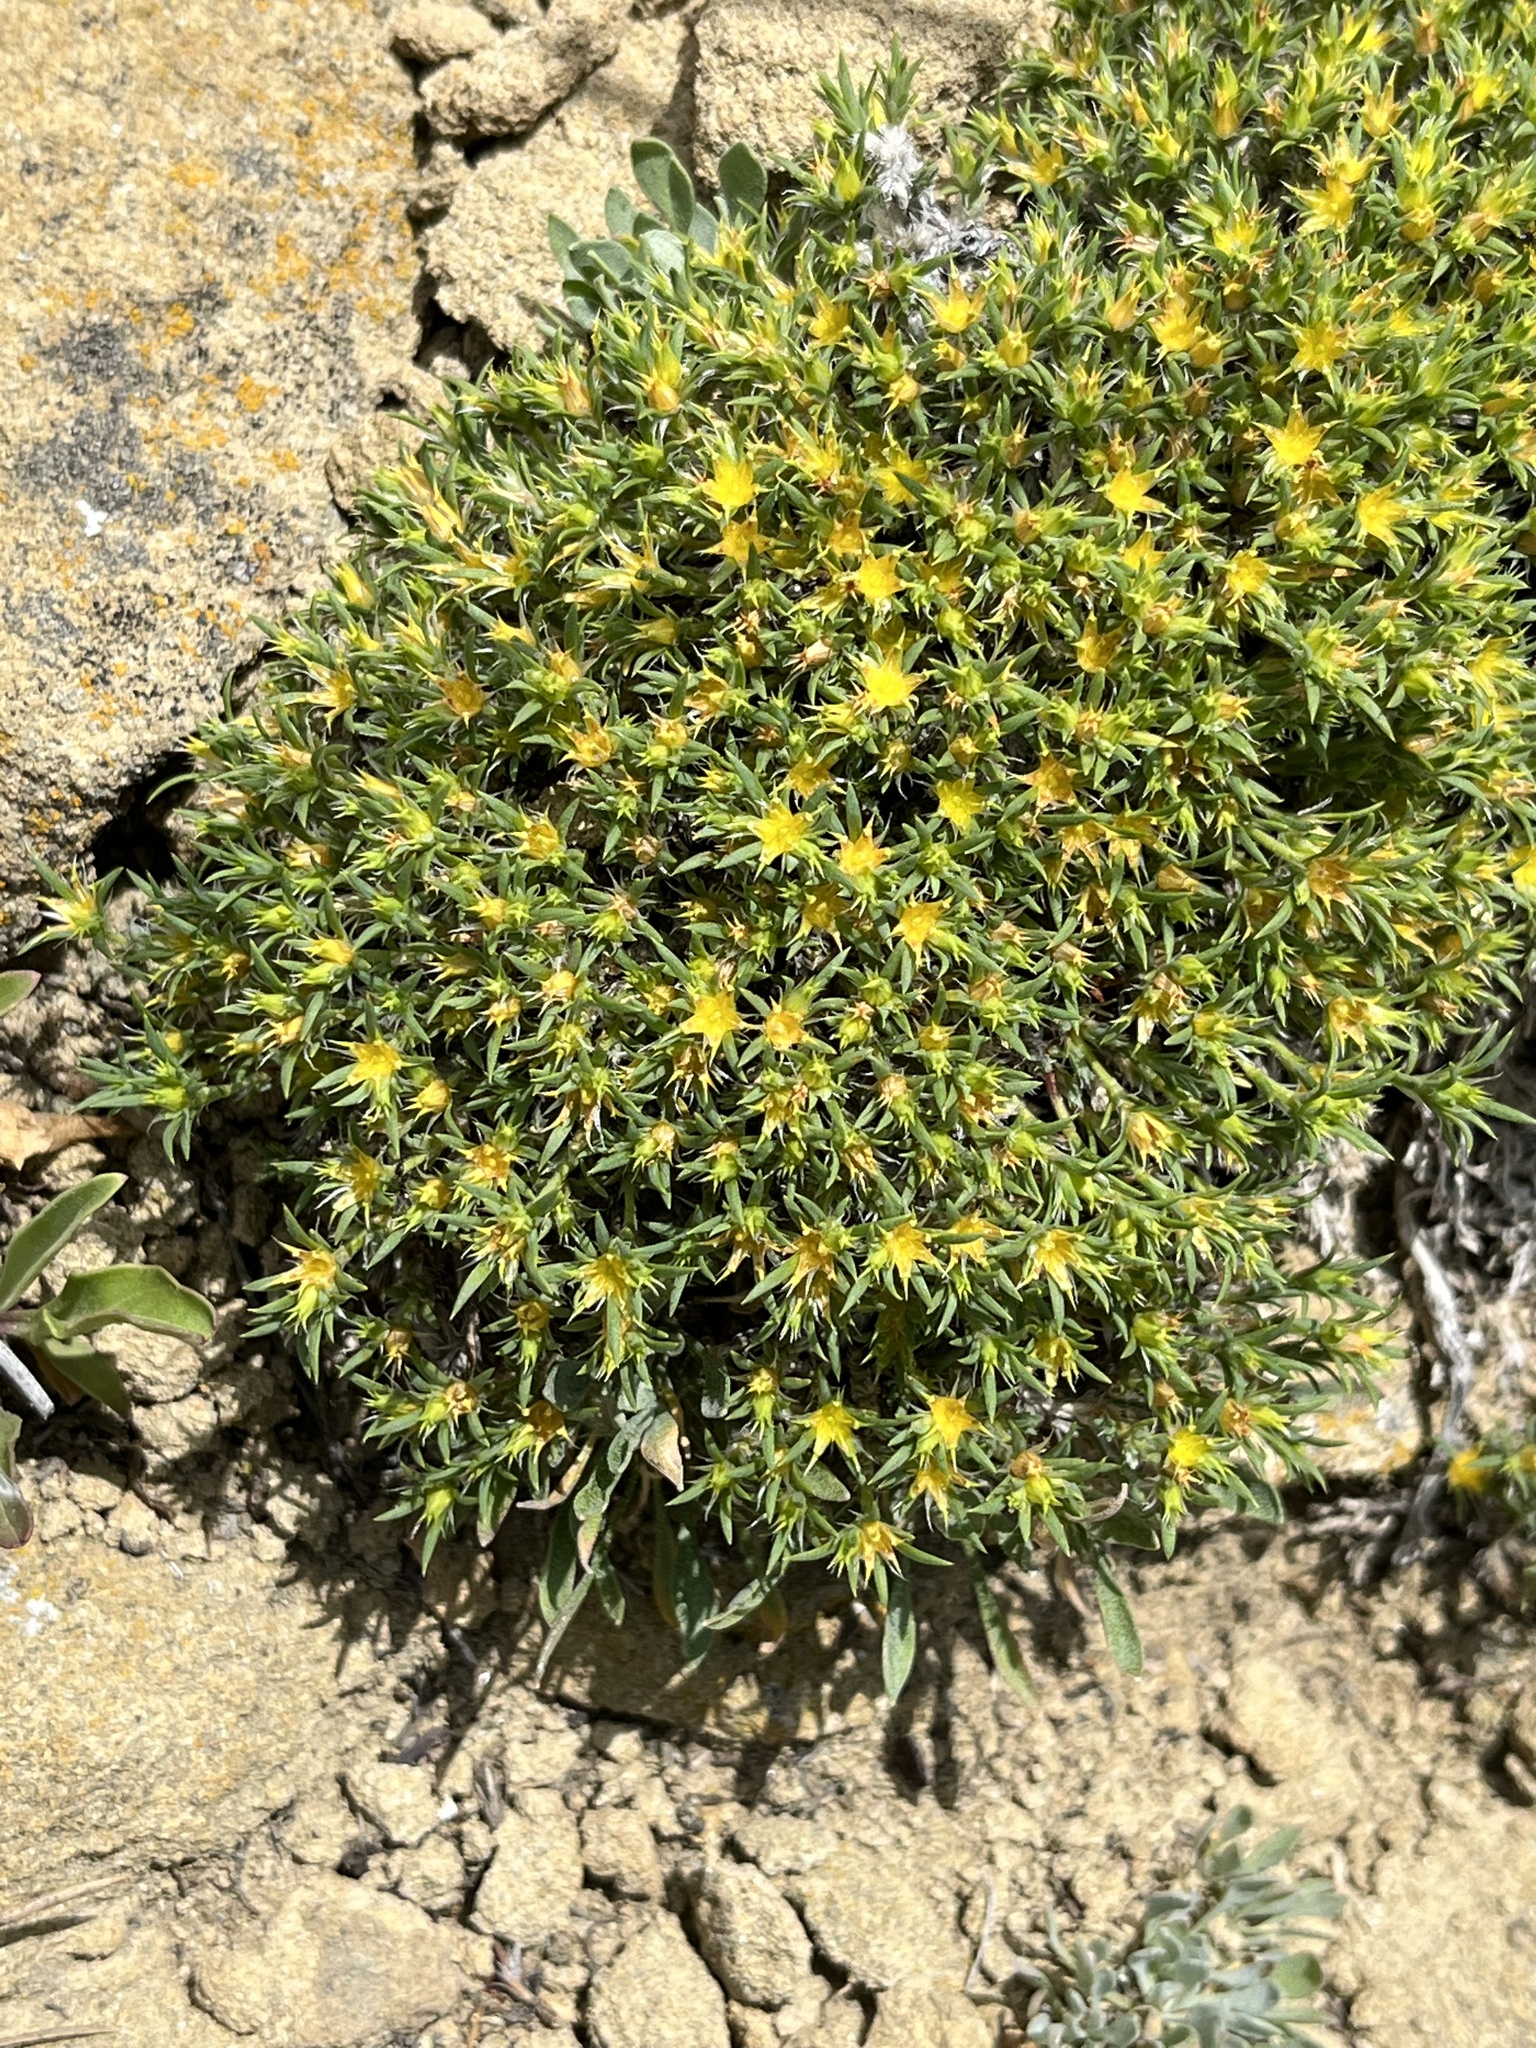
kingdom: Plantae
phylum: Tracheophyta
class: Magnoliopsida
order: Caryophyllales
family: Caryophyllaceae
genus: Paronychia
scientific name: Paronychia sessiliflora
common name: Creeping nailwort
